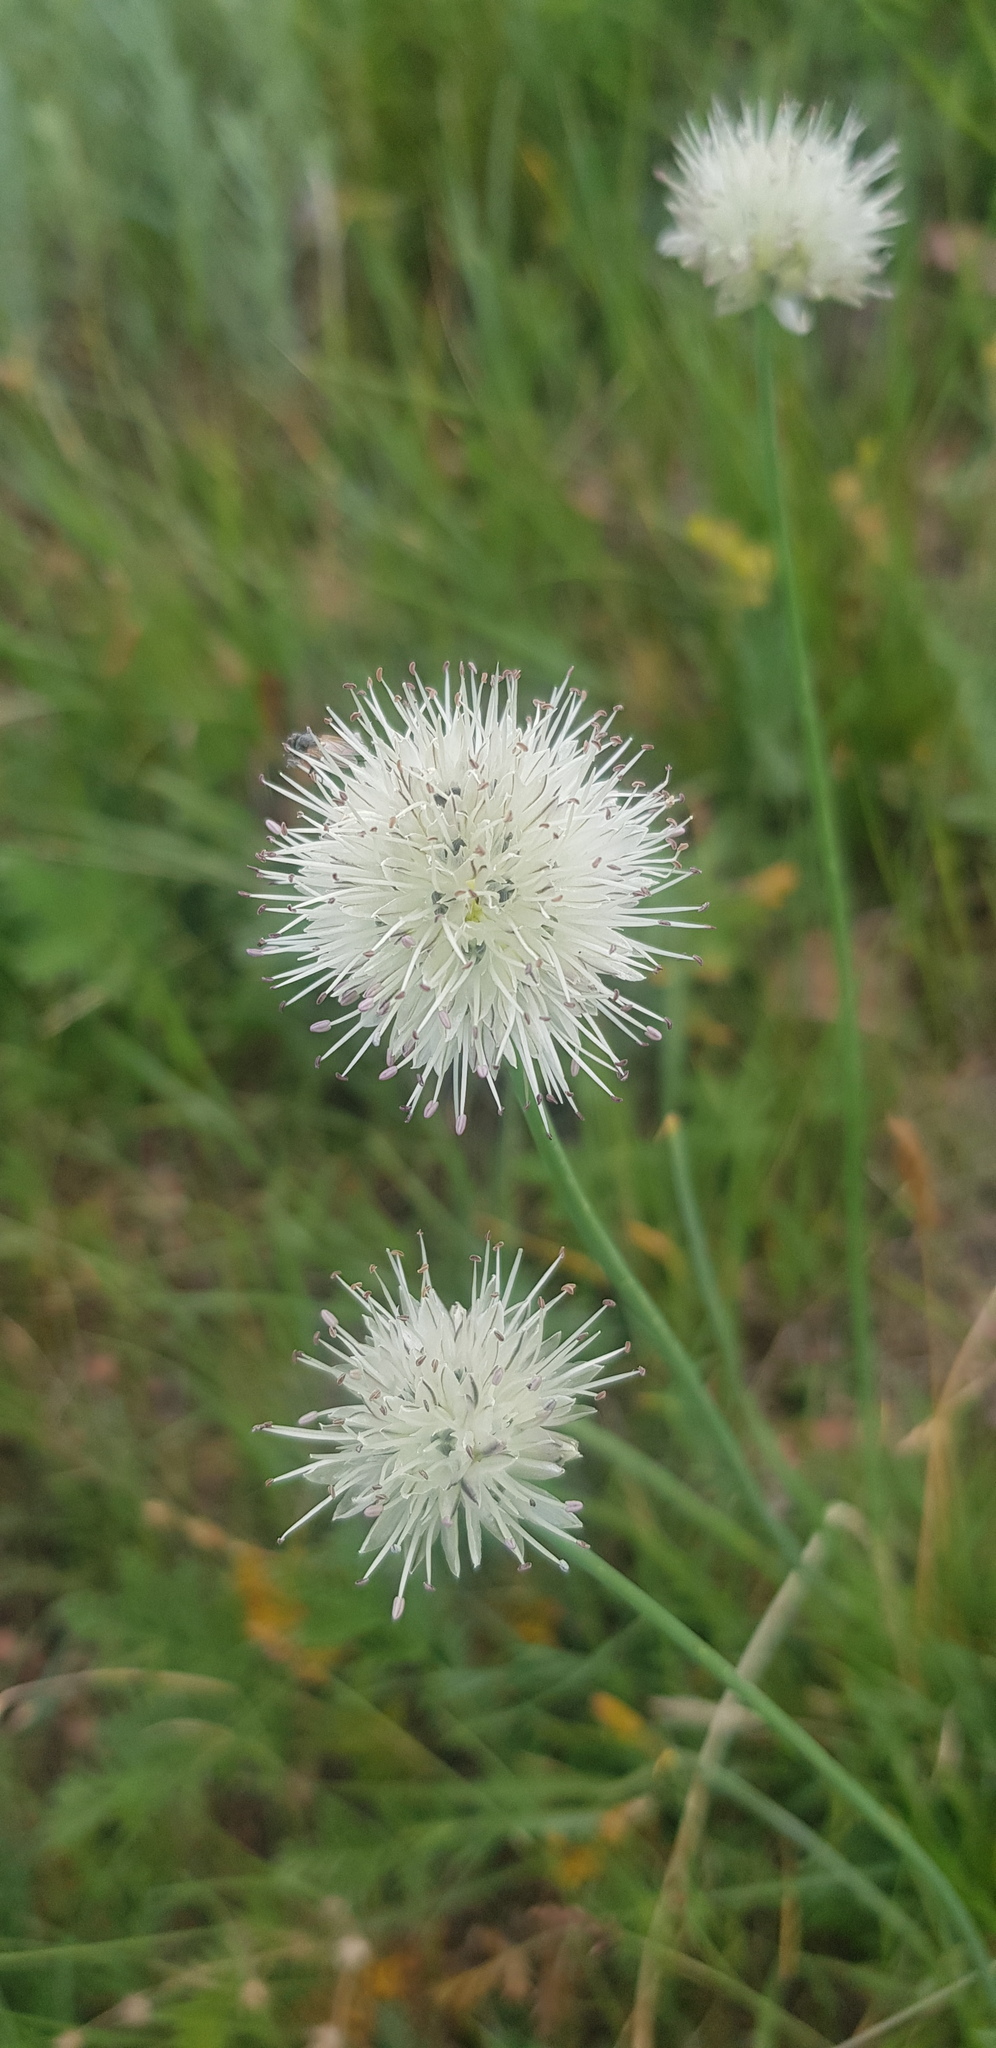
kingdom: Plantae
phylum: Tracheophyta
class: Liliopsida
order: Asparagales
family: Amaryllidaceae
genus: Allium
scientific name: Allium leucocephalum
